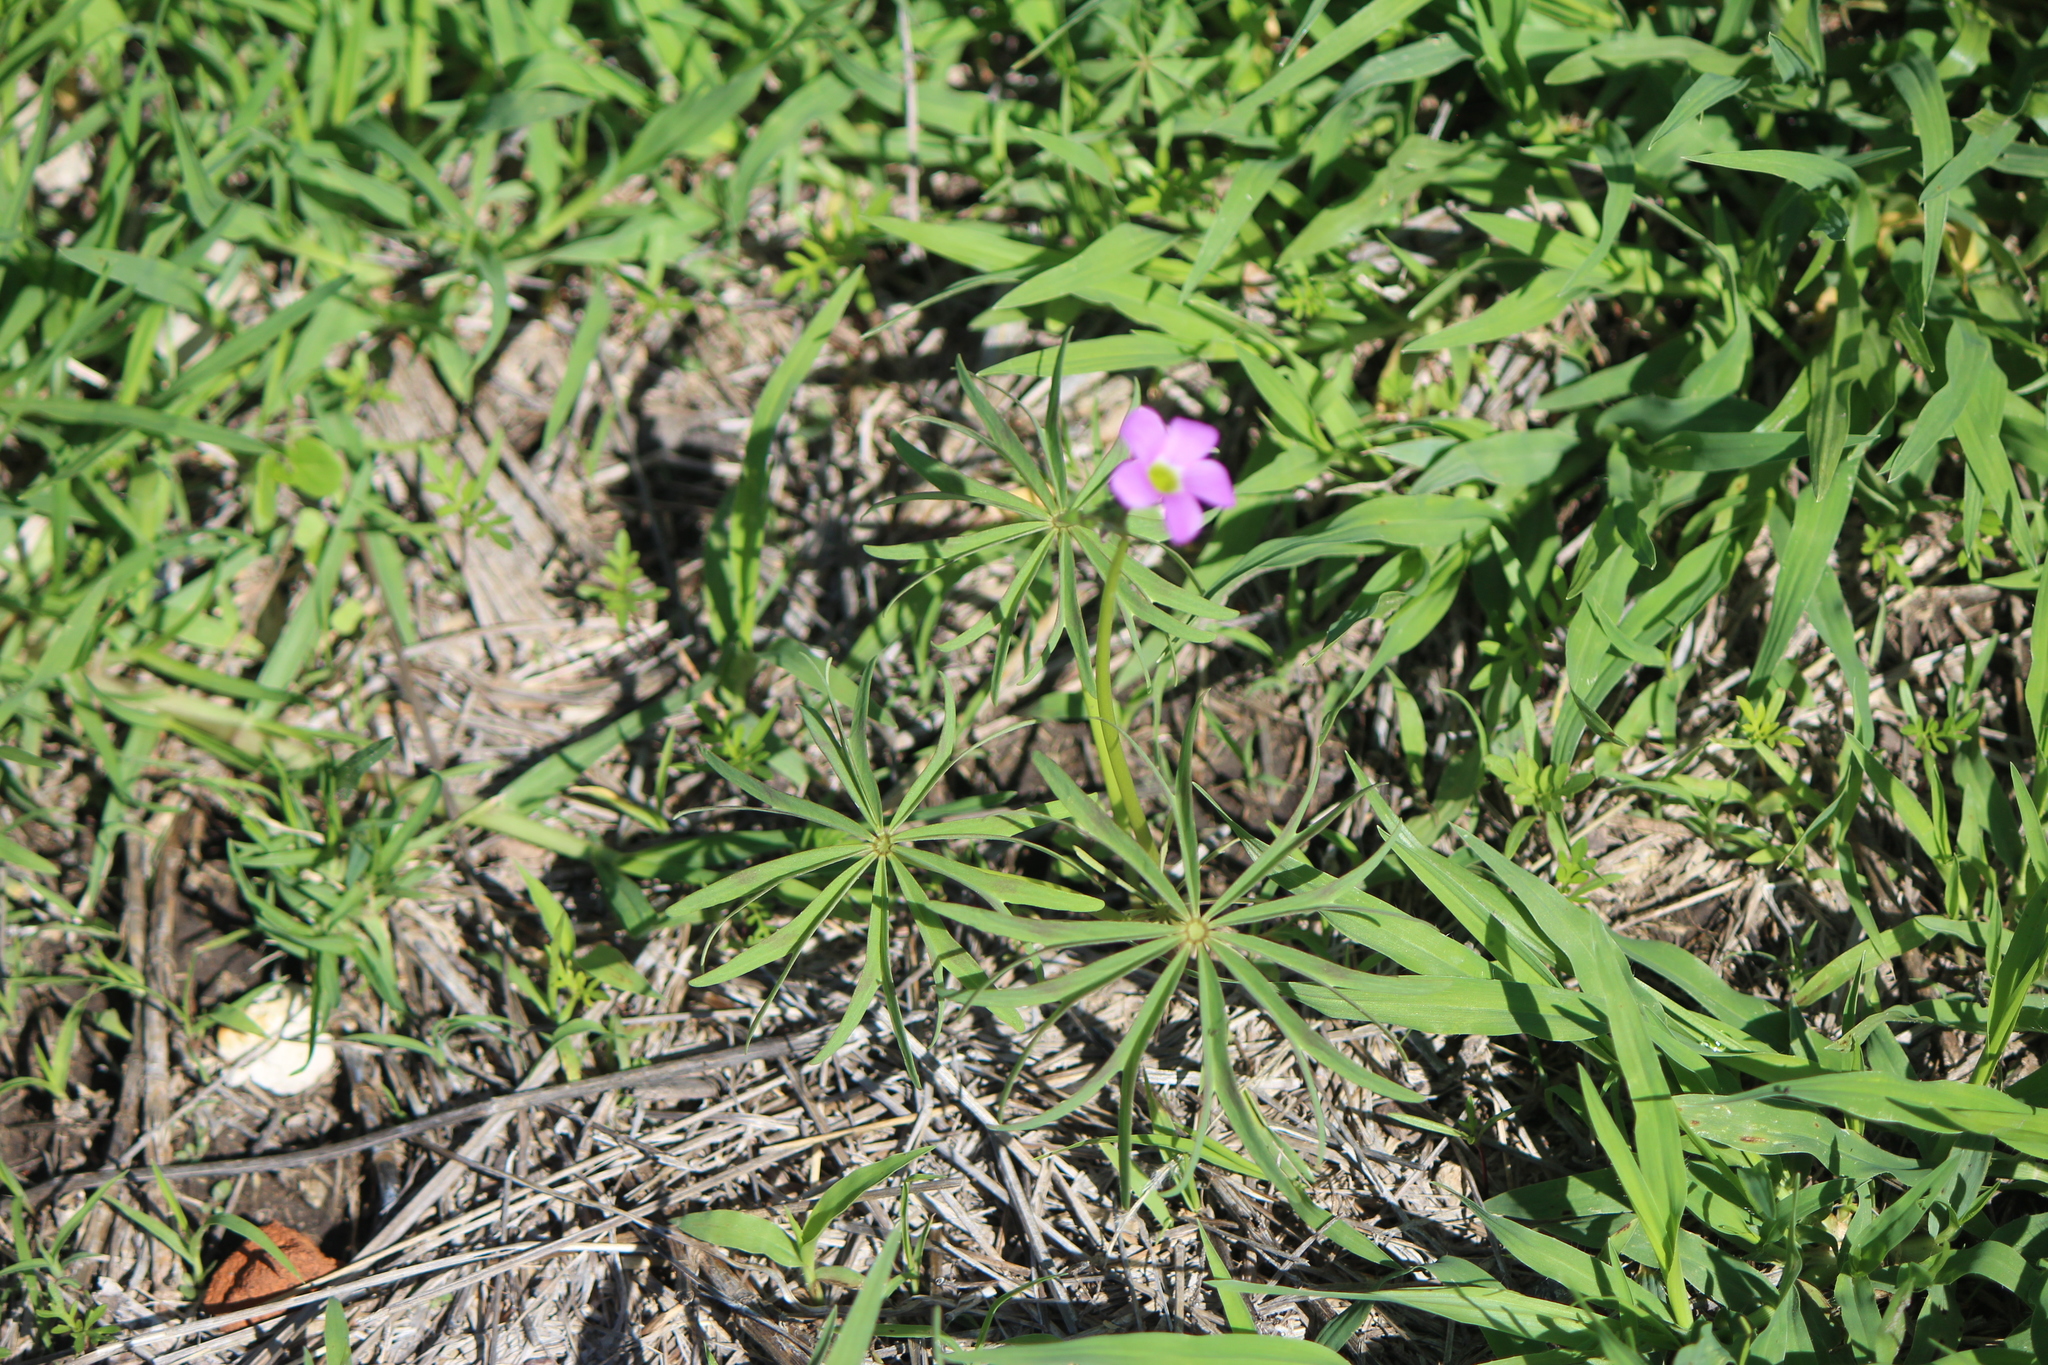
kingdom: Plantae
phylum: Tracheophyta
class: Magnoliopsida
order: Oxalidales
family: Oxalidaceae
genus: Oxalis
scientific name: Oxalis decaphylla
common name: Ten-leaved pink-sorrel
